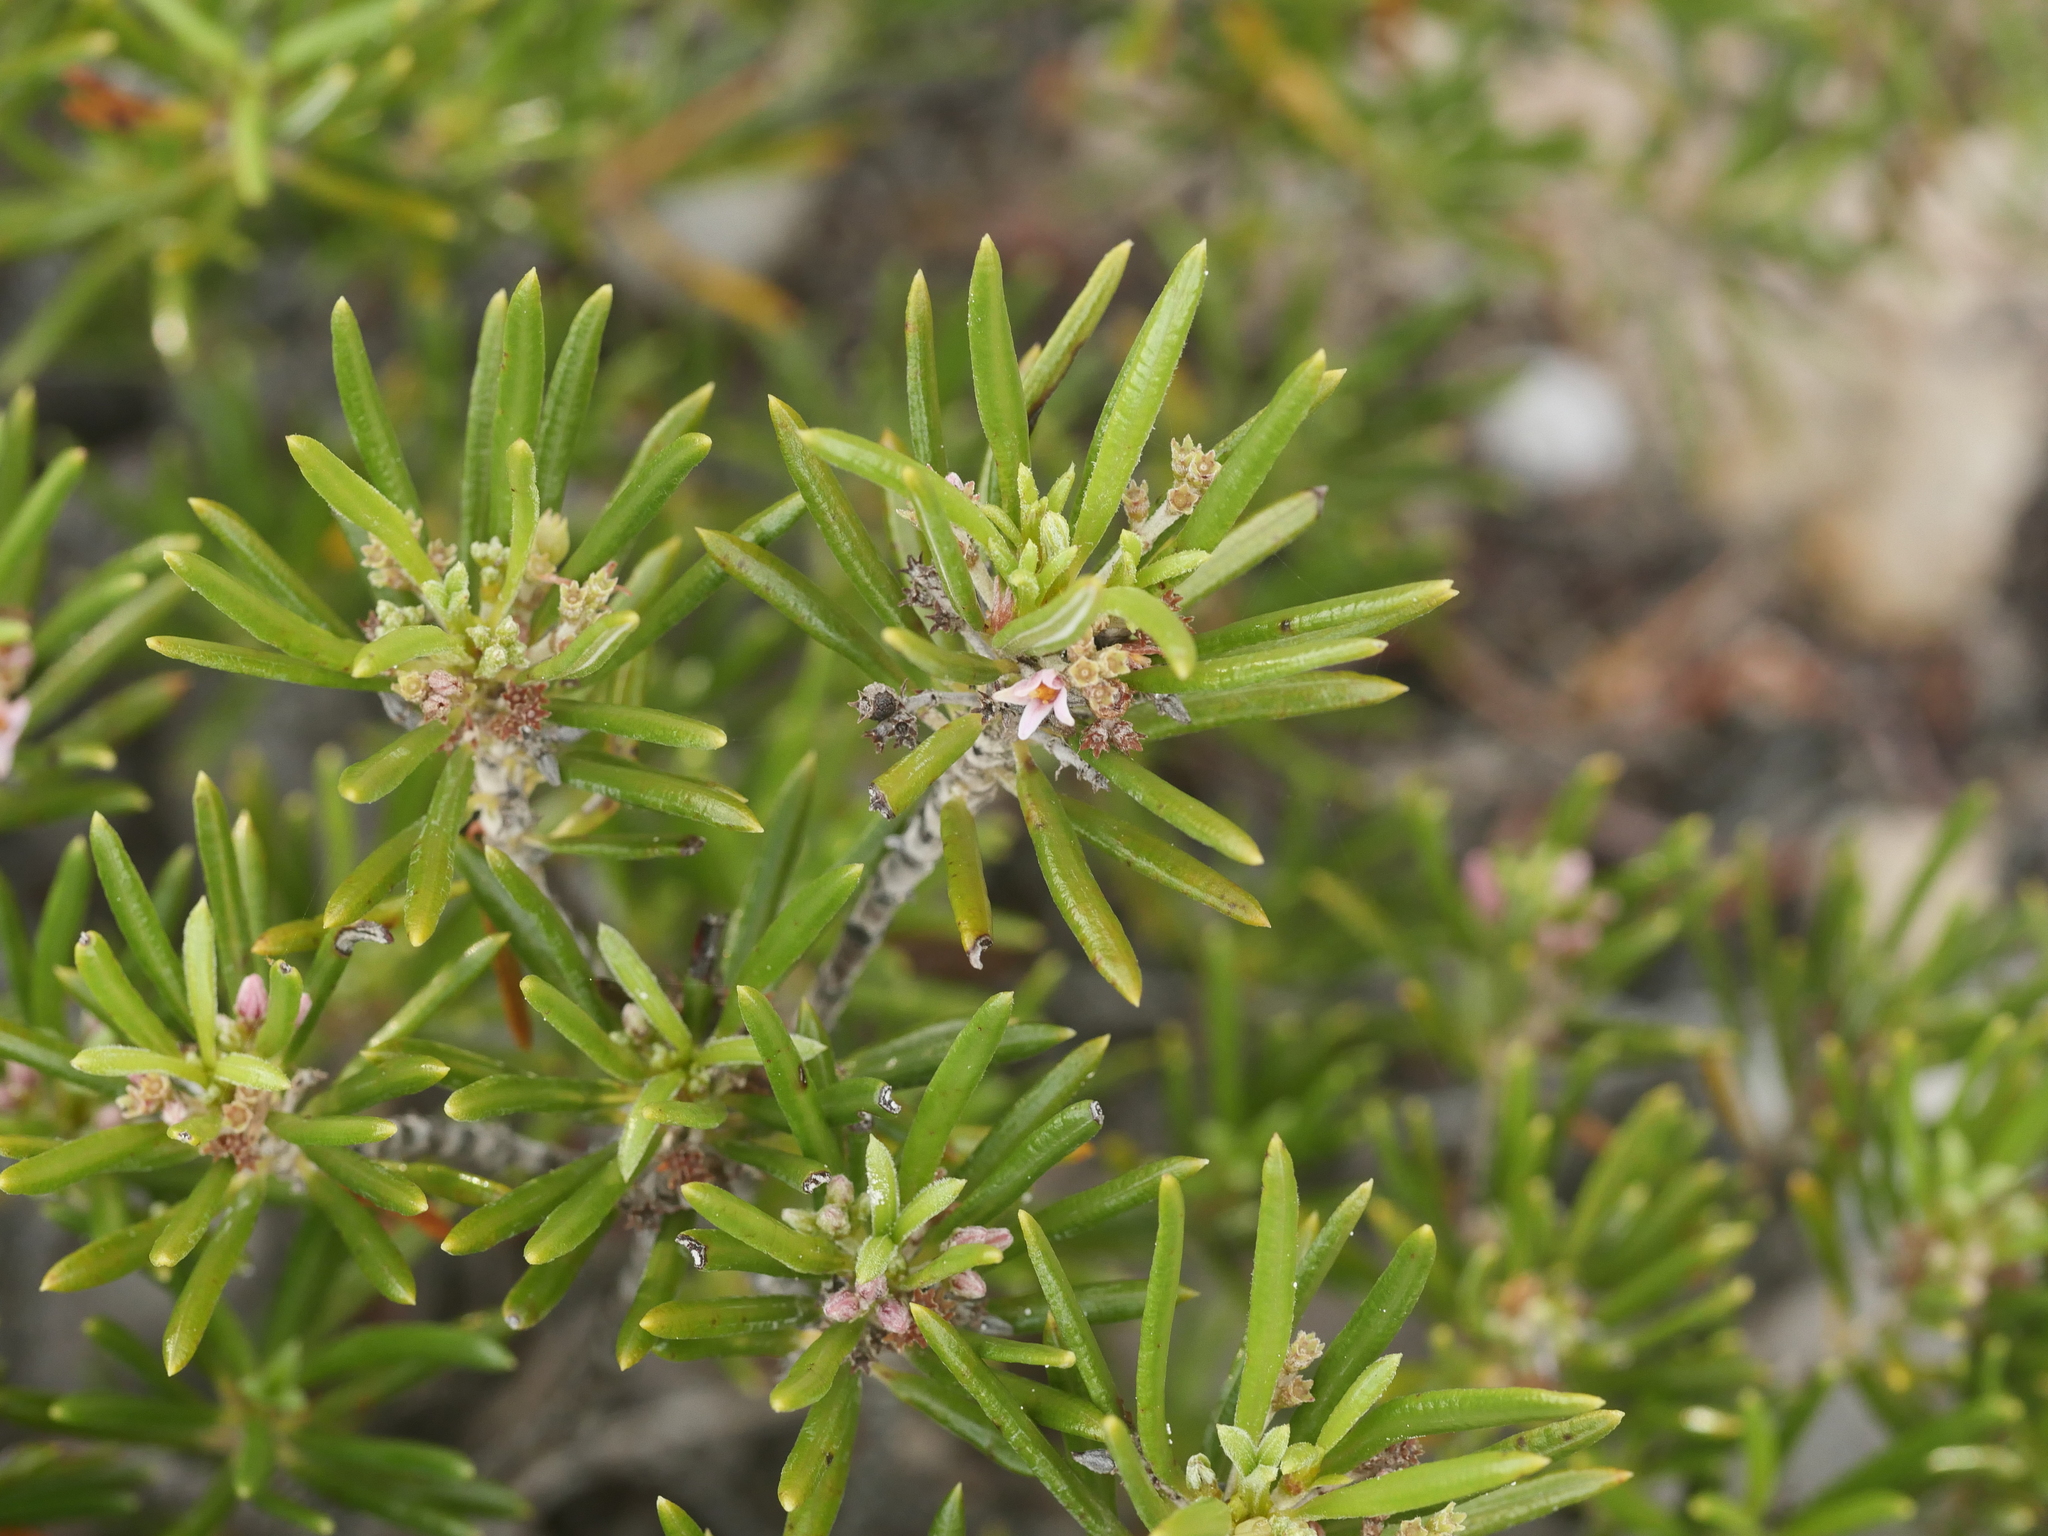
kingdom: Plantae
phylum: Tracheophyta
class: Magnoliopsida
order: Gentianales
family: Rubiaceae
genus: Strumpfia
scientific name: Strumpfia maritima
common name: Pride-of-big pine
